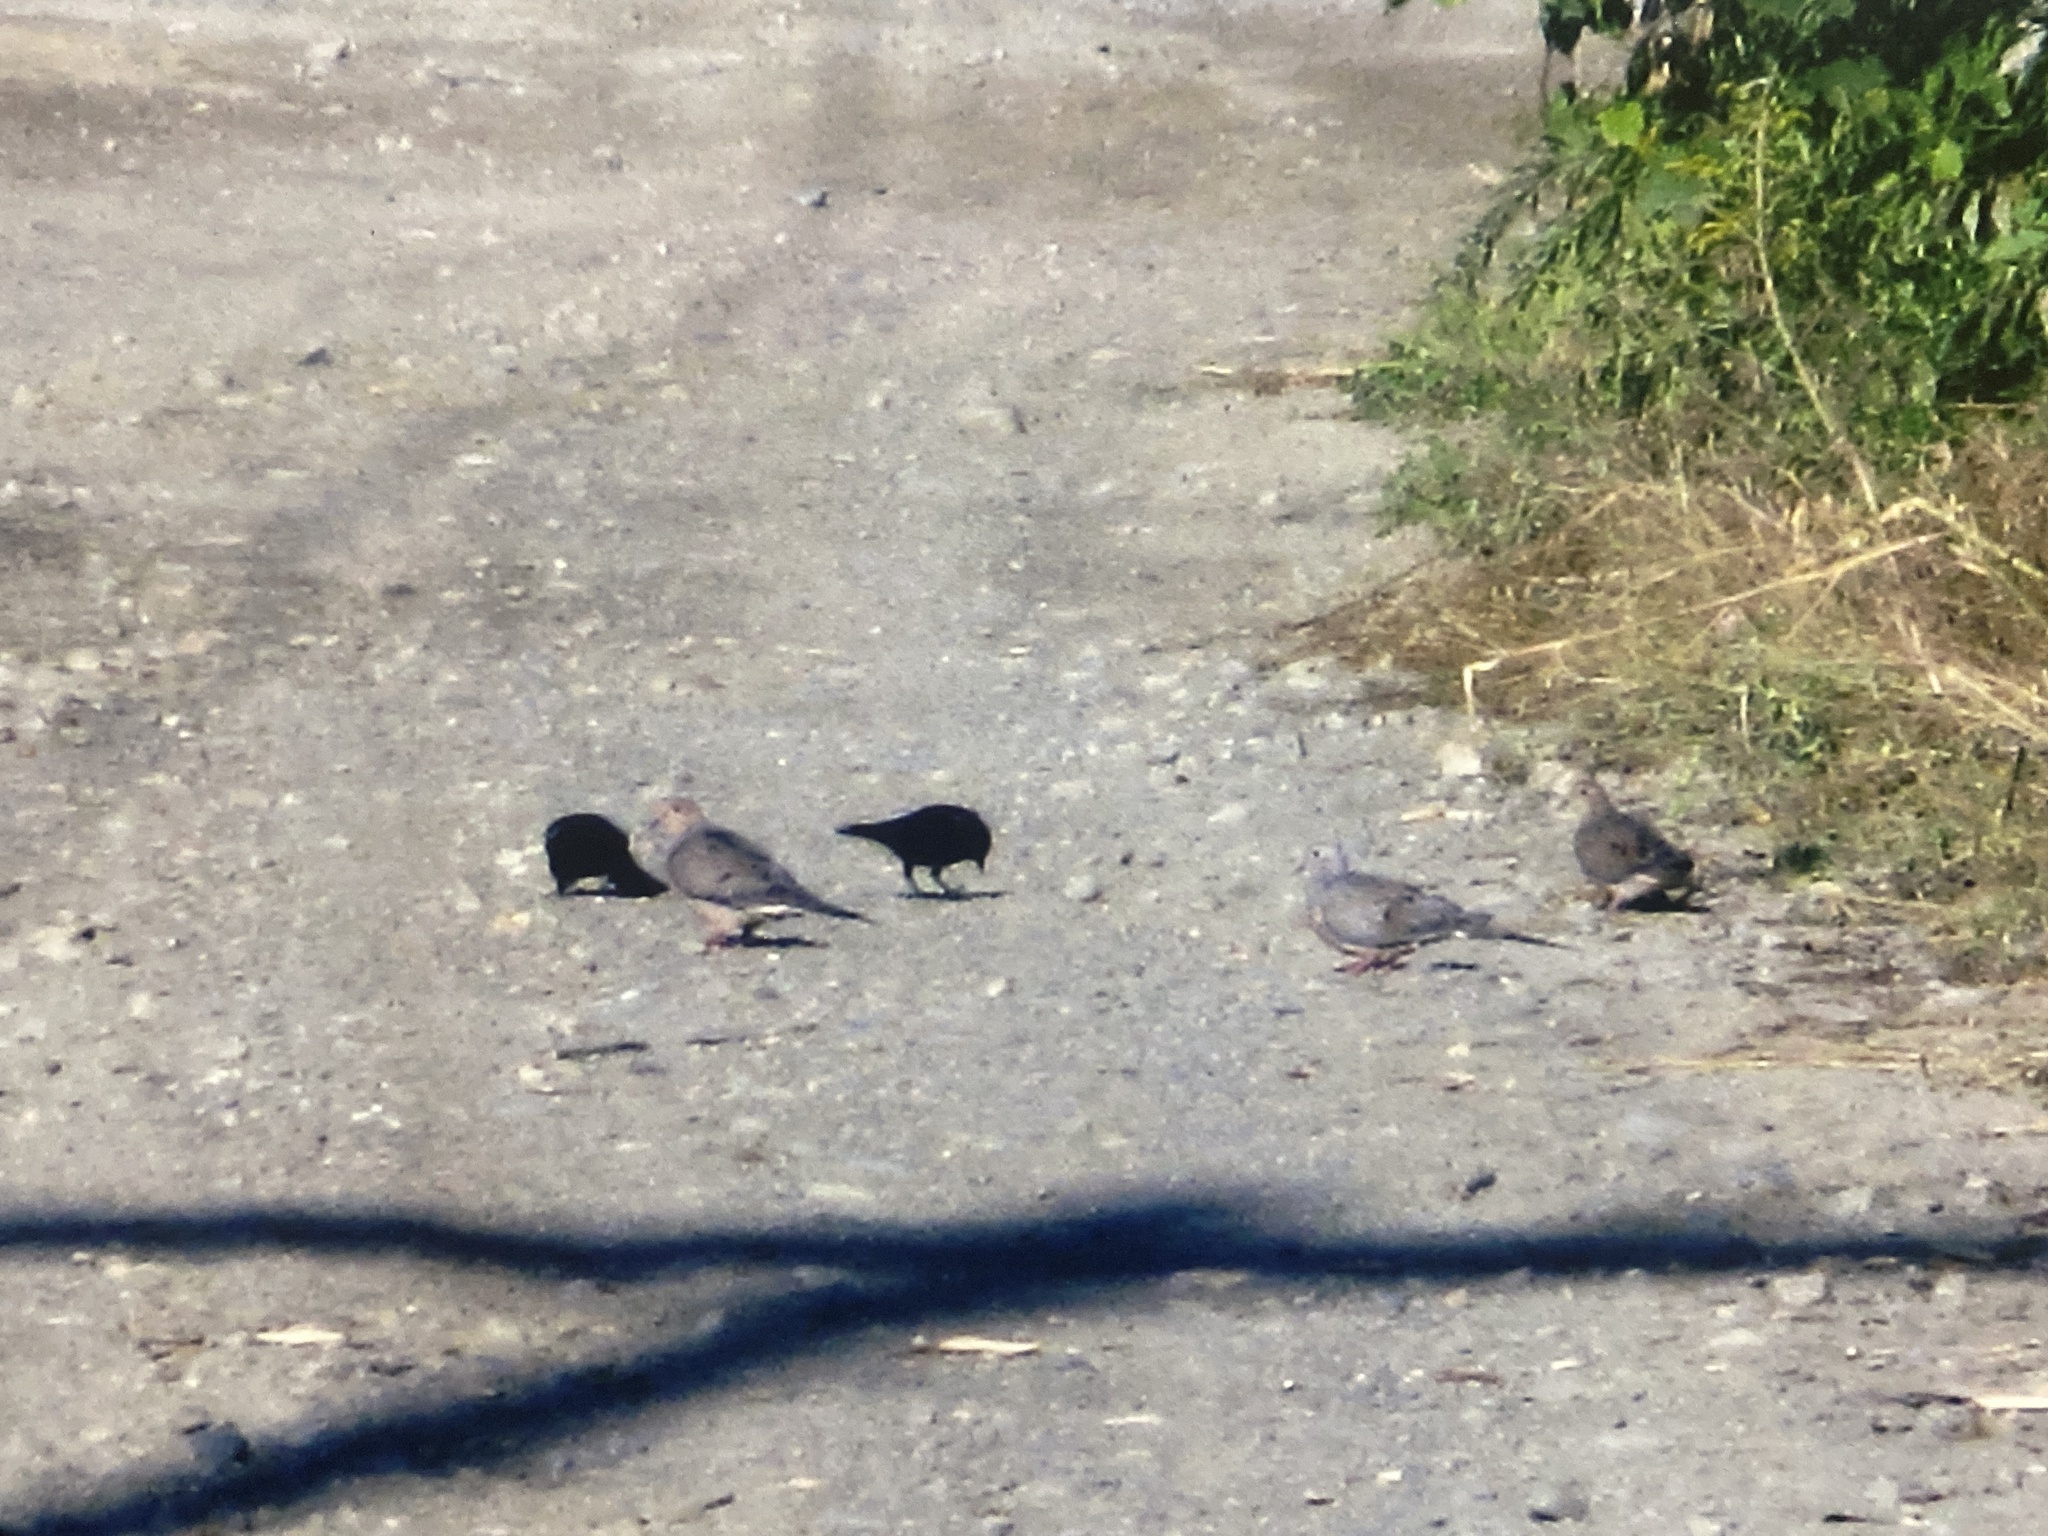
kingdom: Animalia
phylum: Chordata
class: Aves
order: Columbiformes
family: Columbidae
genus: Zenaida
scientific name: Zenaida macroura
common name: Mourning dove
